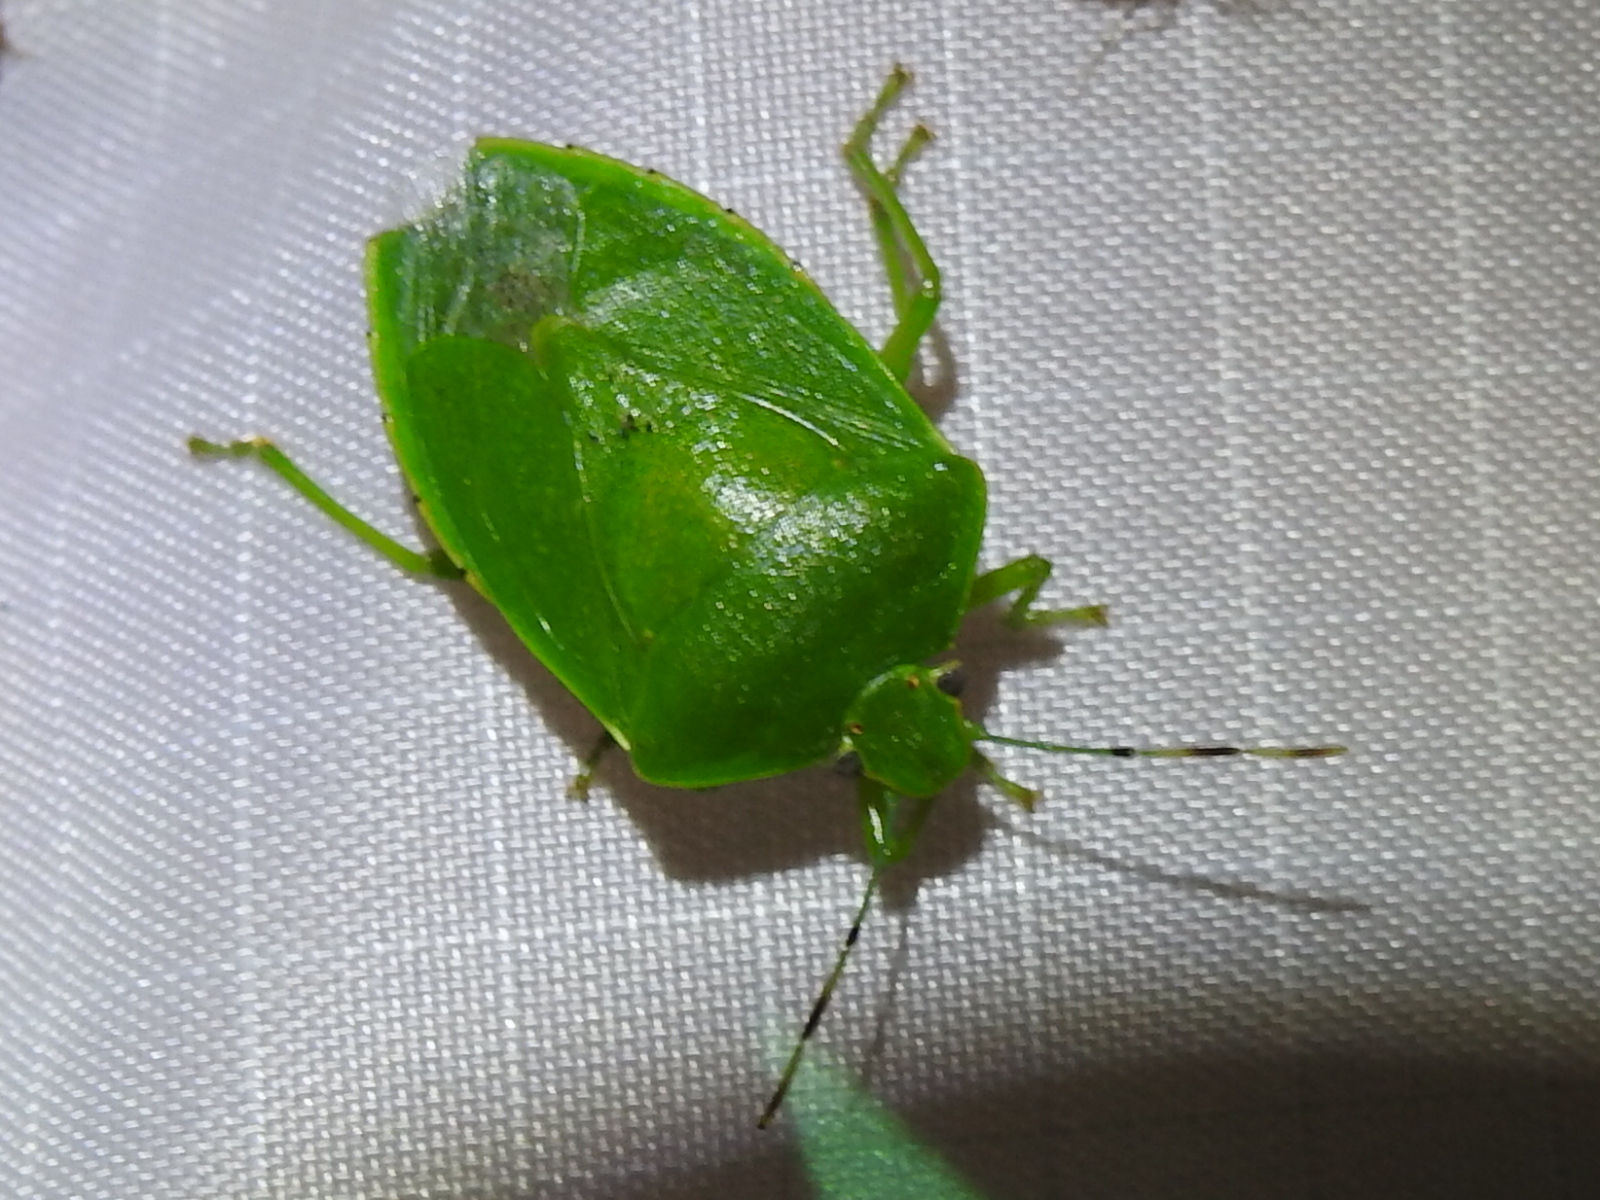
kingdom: Animalia
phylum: Arthropoda
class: Insecta
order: Hemiptera
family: Pentatomidae
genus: Chinavia
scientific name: Chinavia hilaris
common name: Green stink bug
